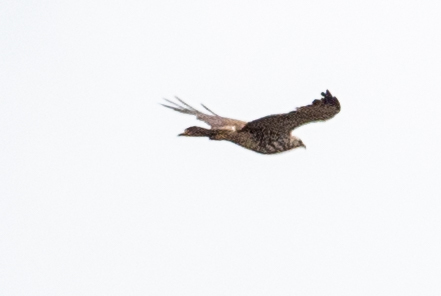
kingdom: Animalia
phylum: Chordata
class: Aves
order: Accipitriformes
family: Accipitridae
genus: Buteo
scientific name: Buteo jamaicensis
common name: Red-tailed hawk
